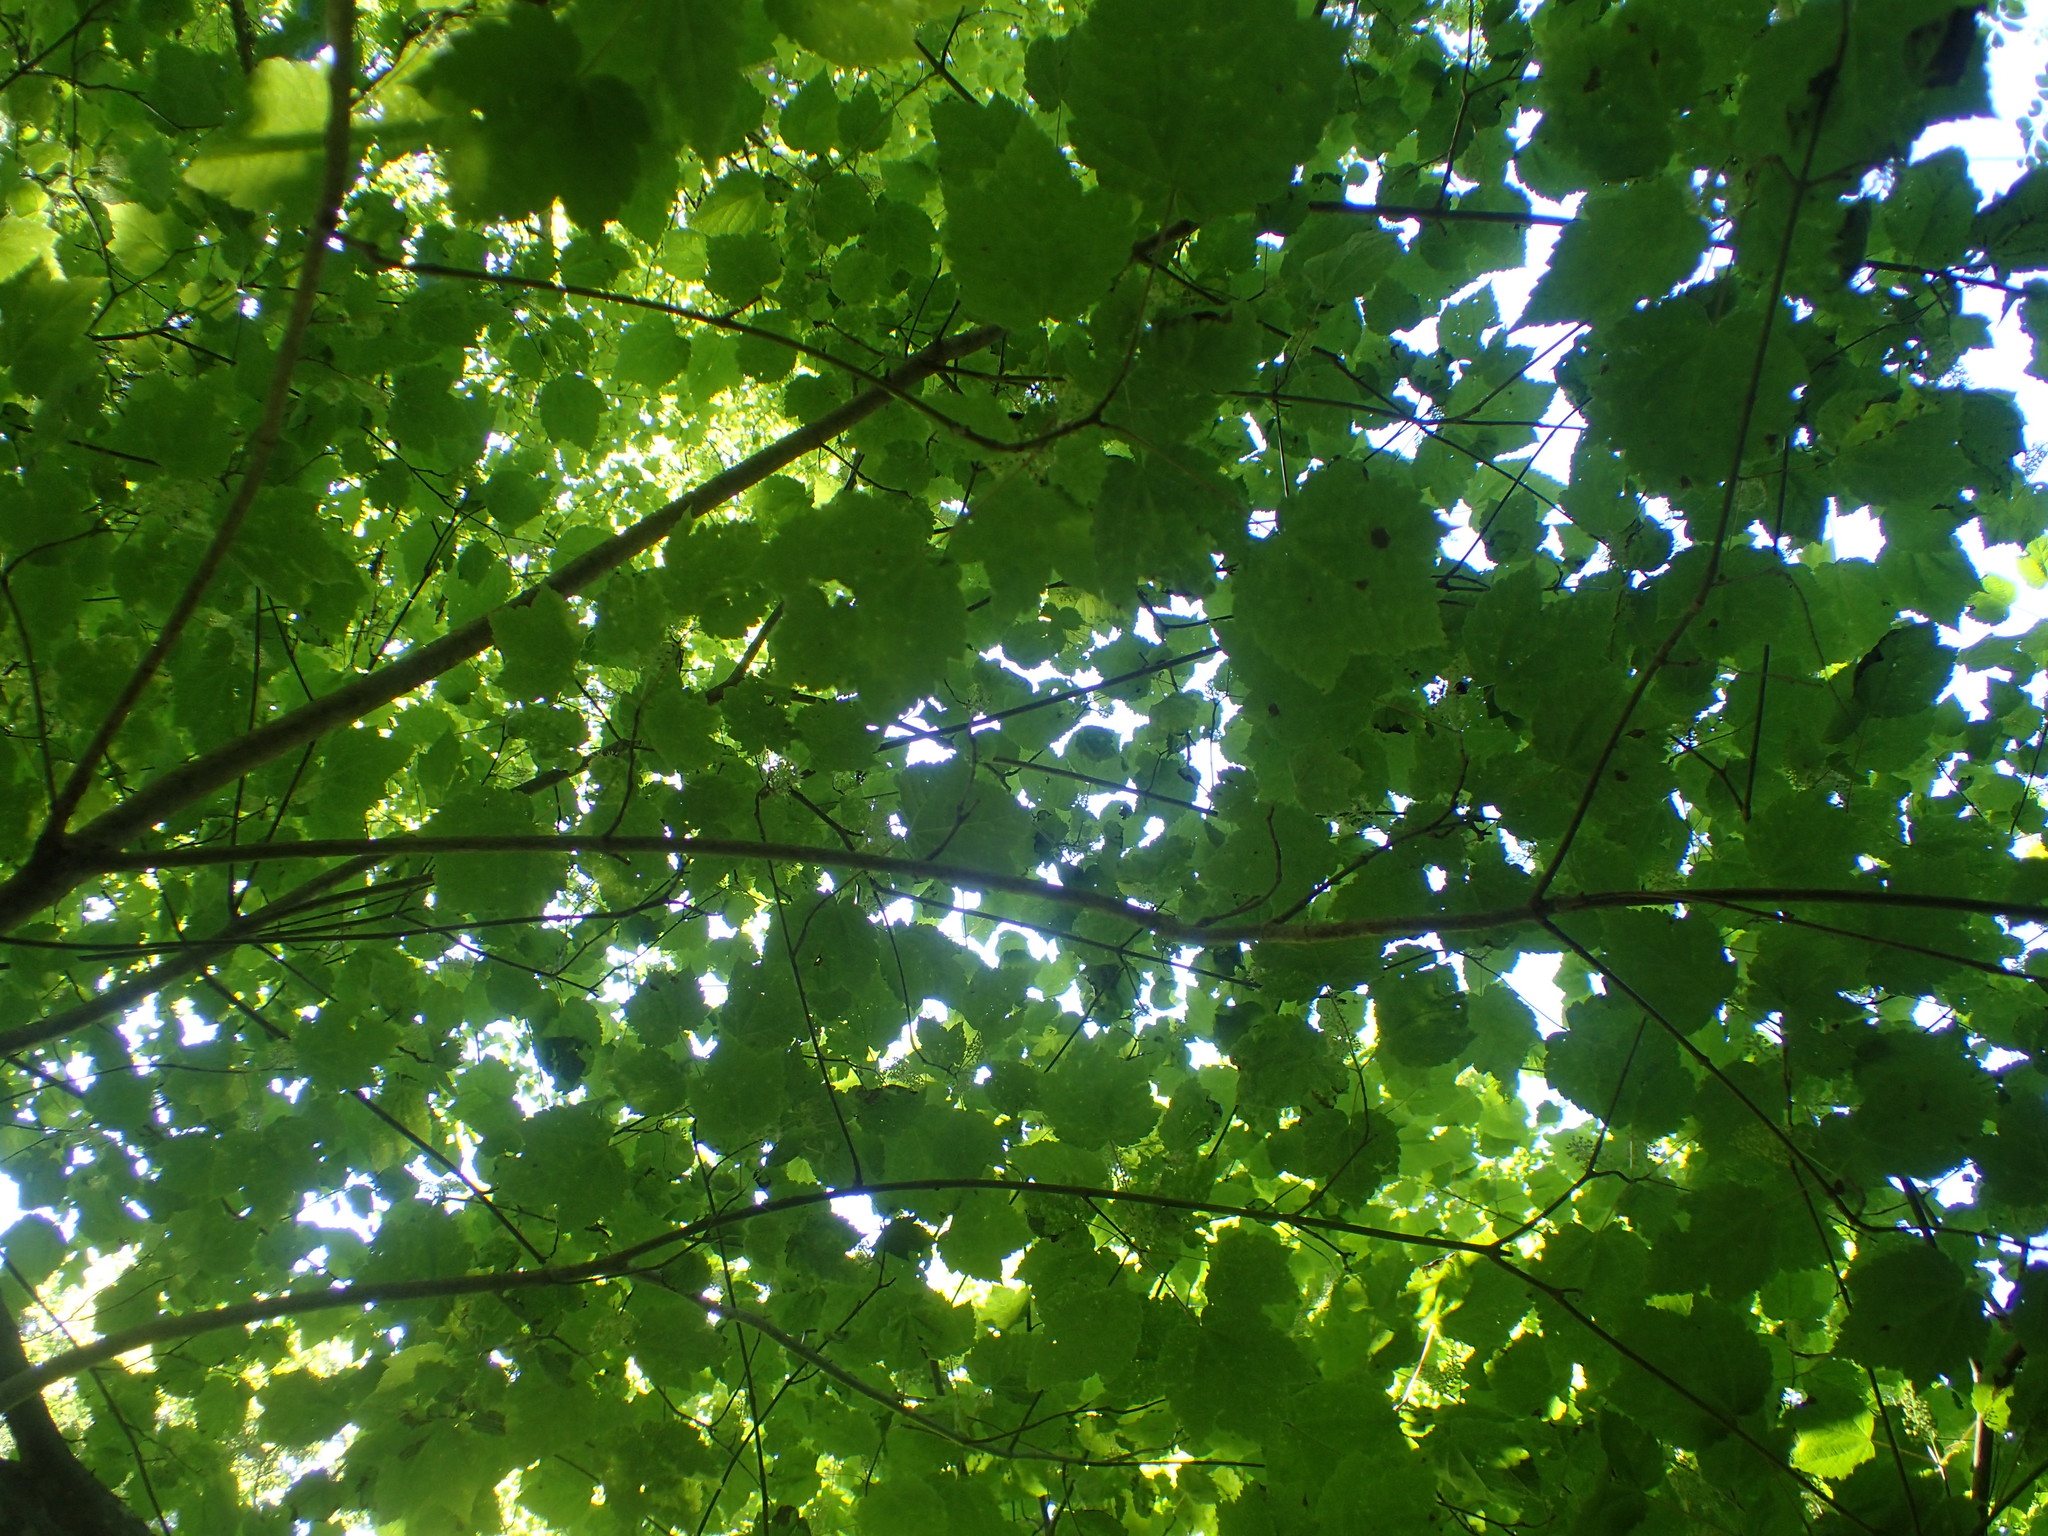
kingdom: Plantae
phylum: Tracheophyta
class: Magnoliopsida
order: Sapindales
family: Sapindaceae
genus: Acer
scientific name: Acer spicatum
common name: Mountain maple
